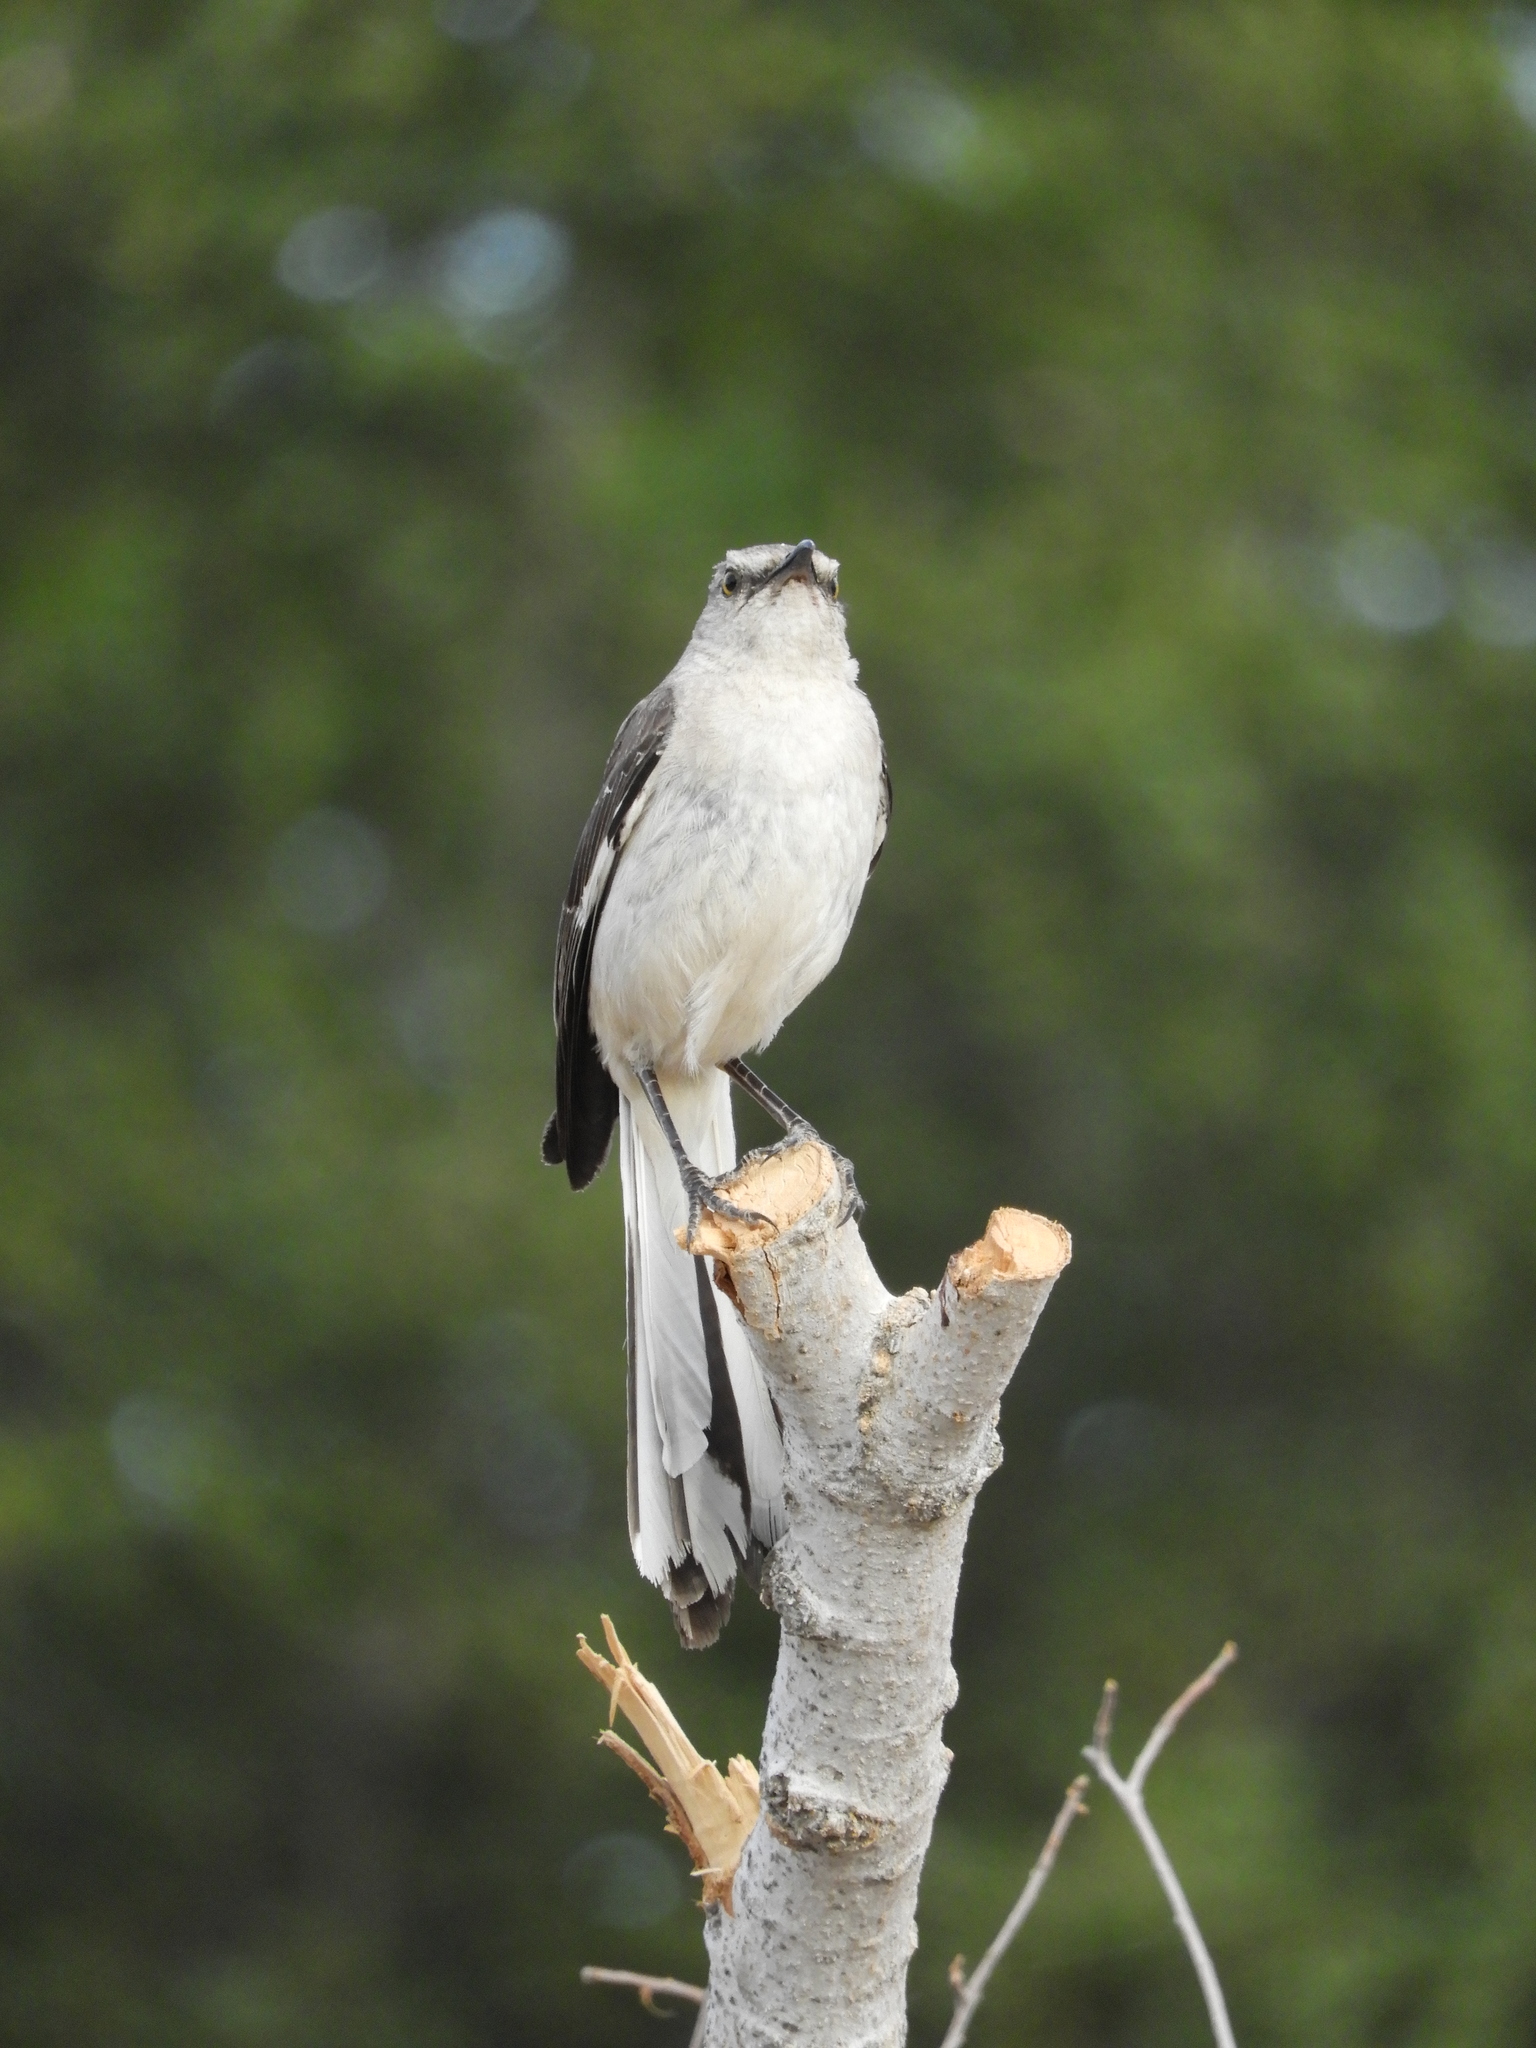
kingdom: Animalia
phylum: Chordata
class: Aves
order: Passeriformes
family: Mimidae
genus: Mimus
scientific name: Mimus polyglottos
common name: Northern mockingbird
